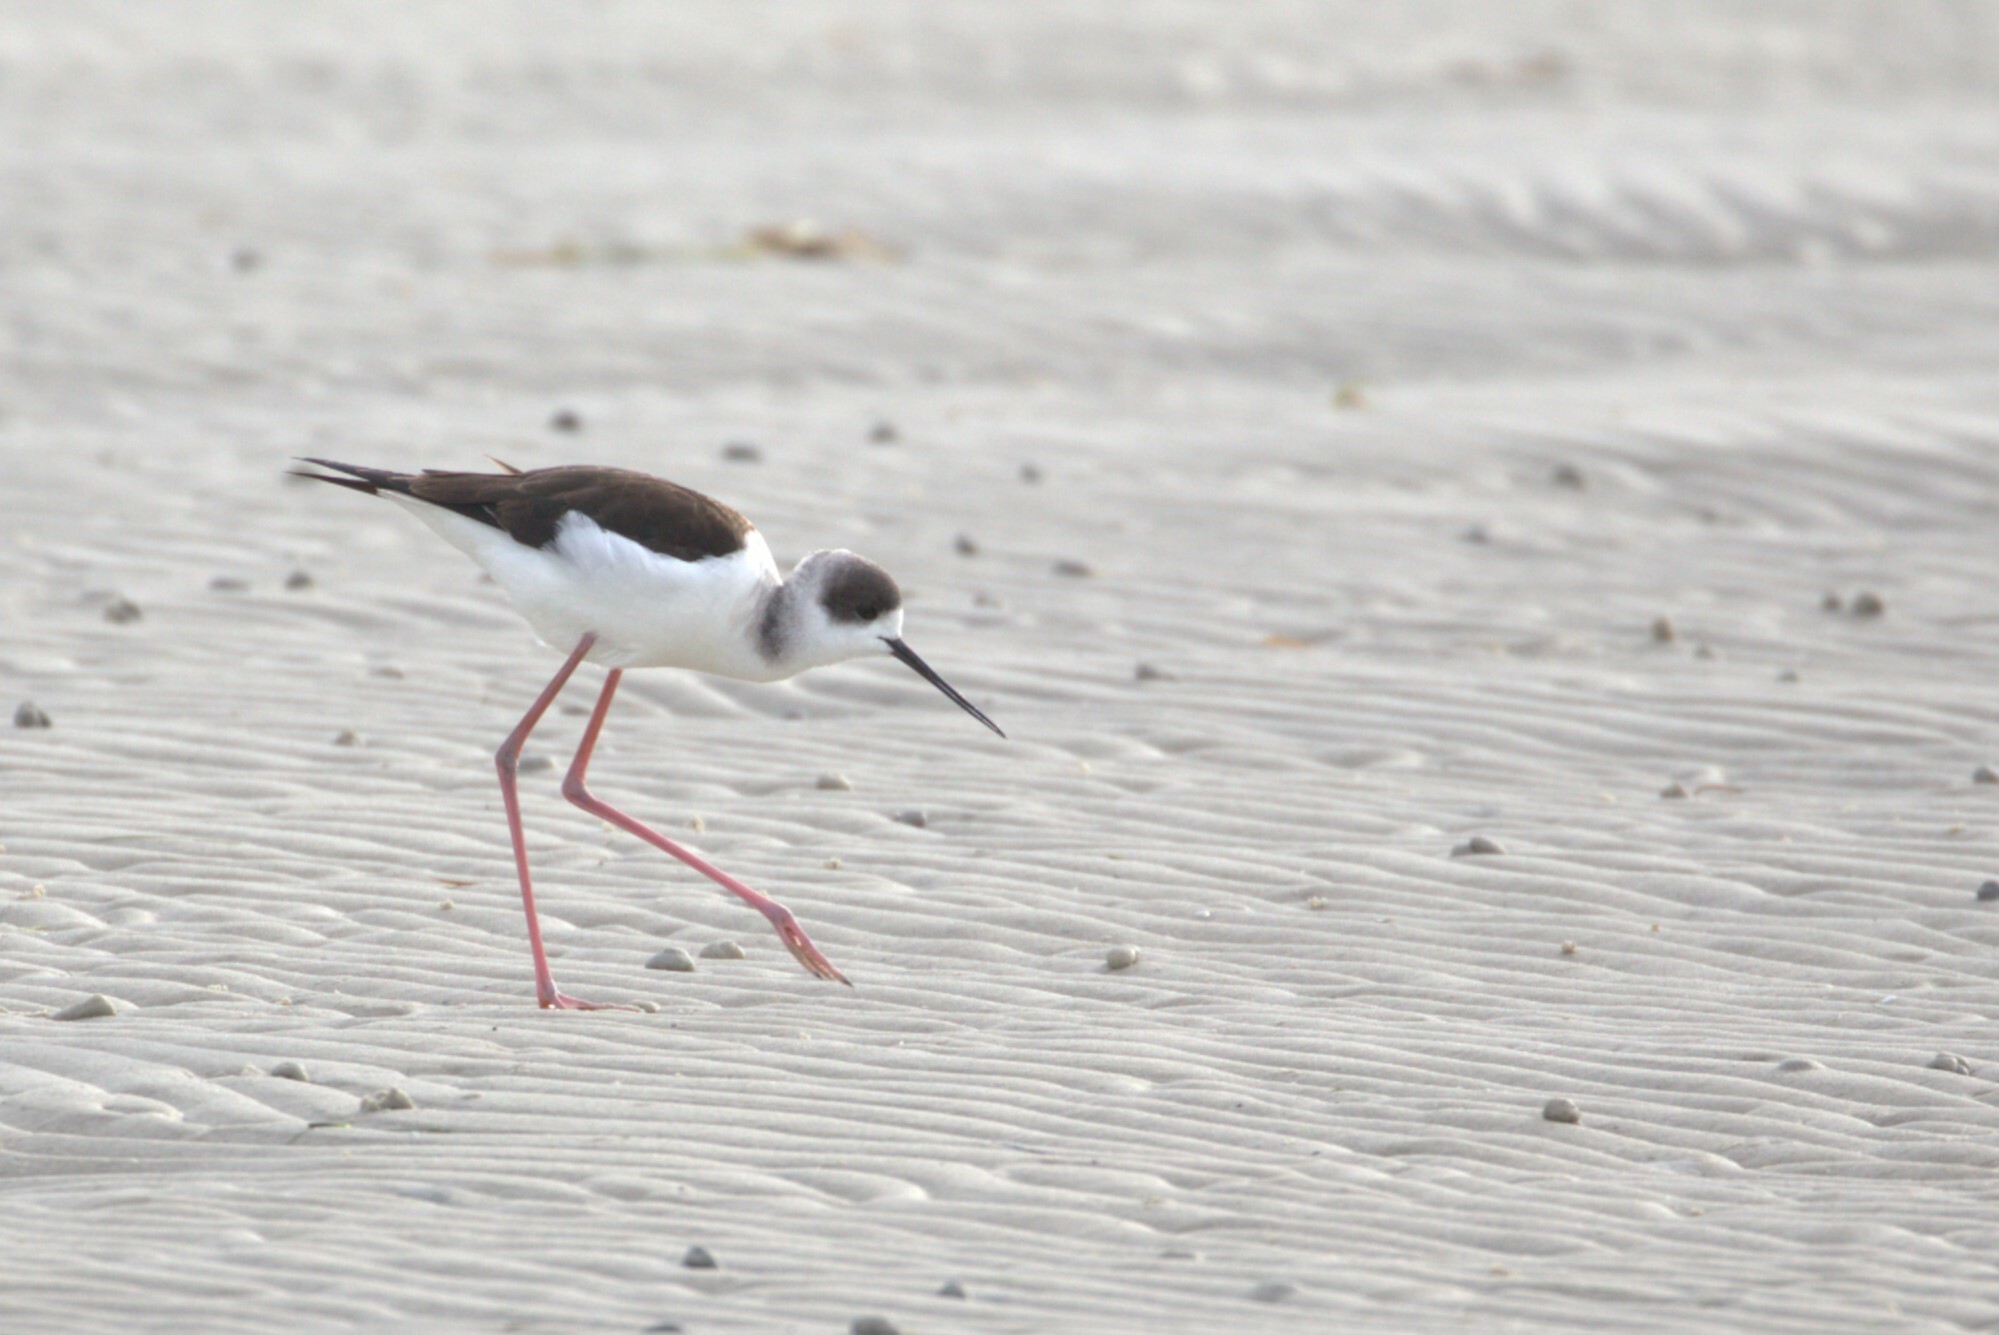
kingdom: Animalia
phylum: Chordata
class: Aves
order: Charadriiformes
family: Recurvirostridae
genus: Himantopus
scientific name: Himantopus leucocephalus
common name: White-headed stilt
